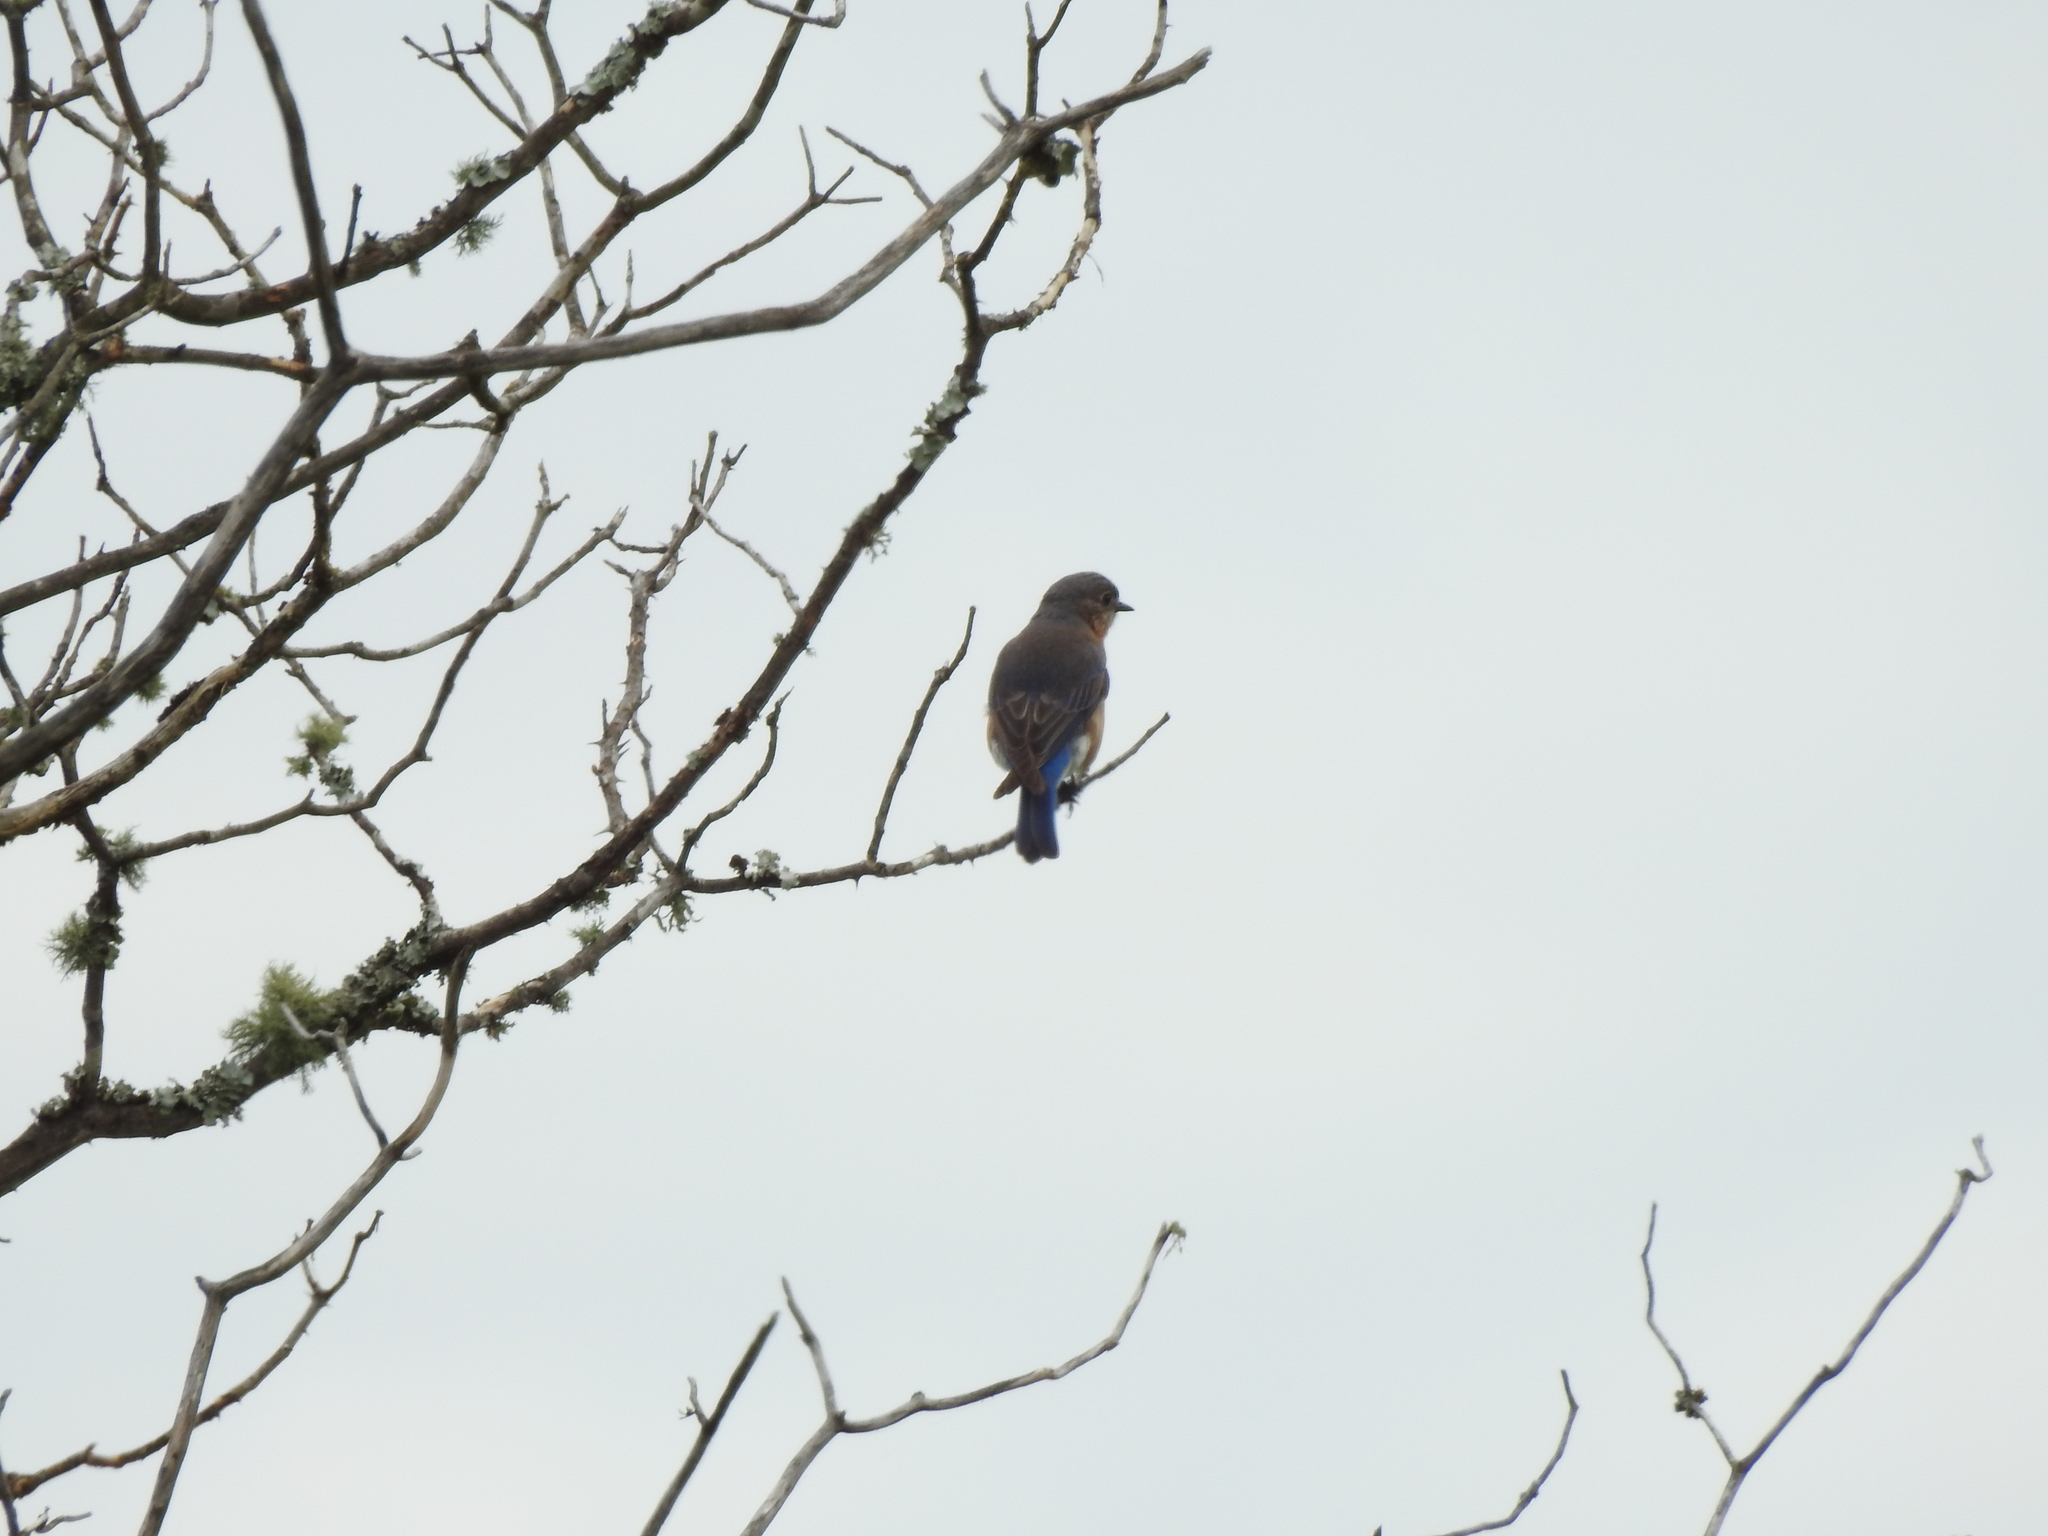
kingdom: Animalia
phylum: Chordata
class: Aves
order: Passeriformes
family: Turdidae
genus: Sialia
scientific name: Sialia sialis
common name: Eastern bluebird
